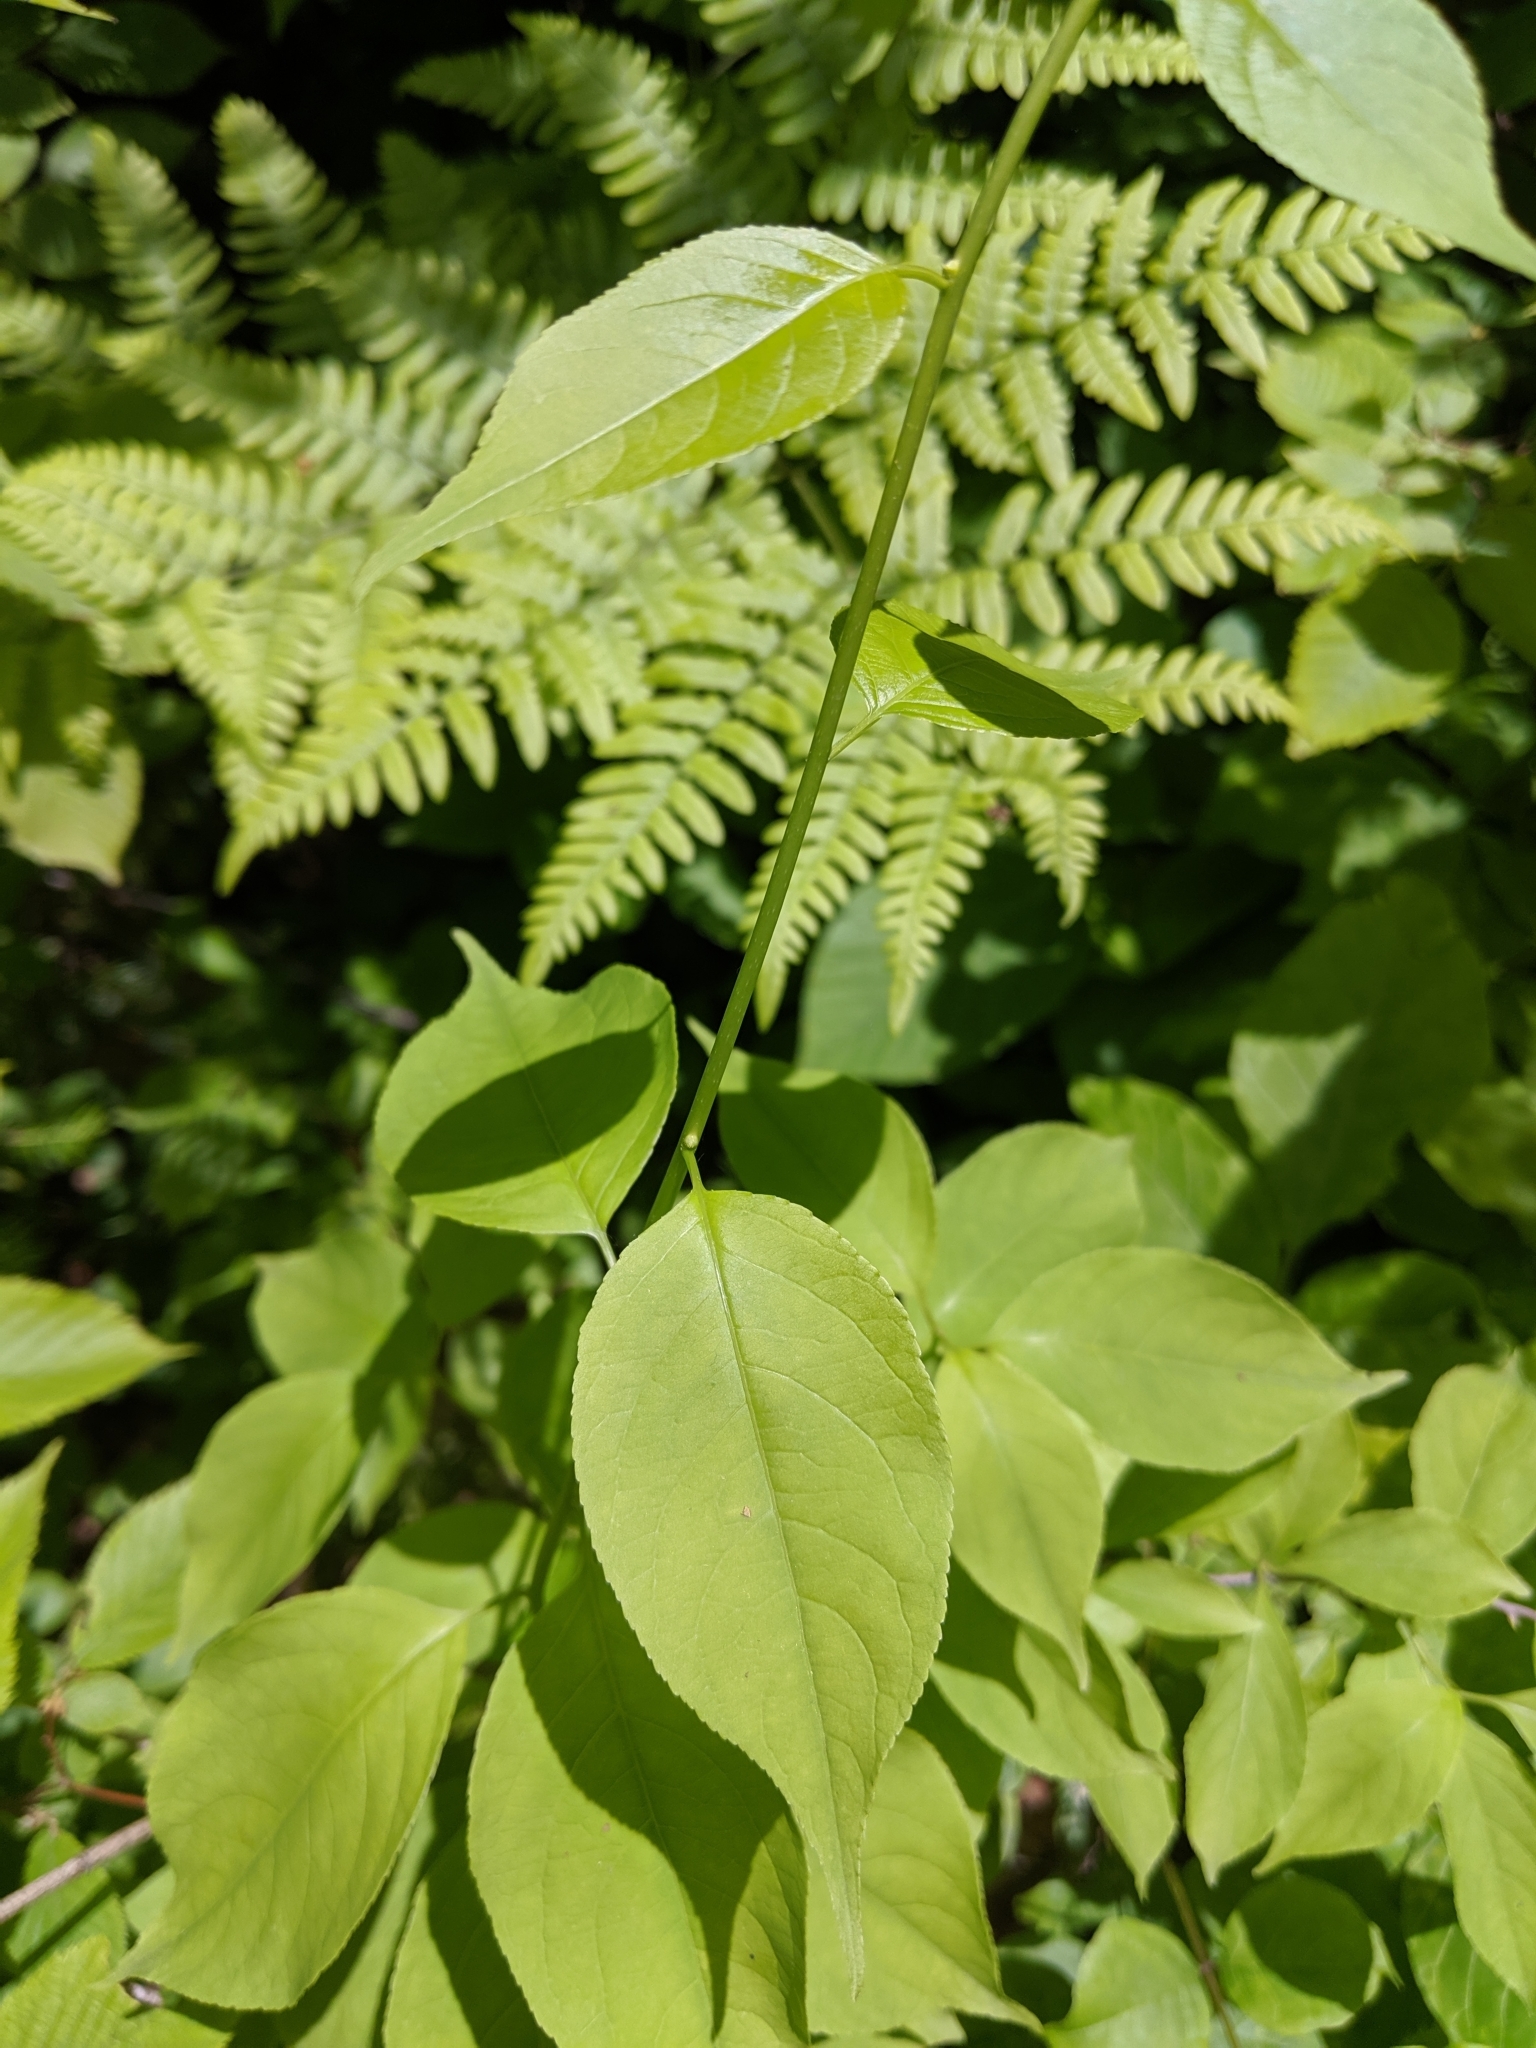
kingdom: Plantae
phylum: Tracheophyta
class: Magnoliopsida
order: Celastrales
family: Celastraceae
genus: Celastrus
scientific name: Celastrus scandens
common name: American bittersweet
